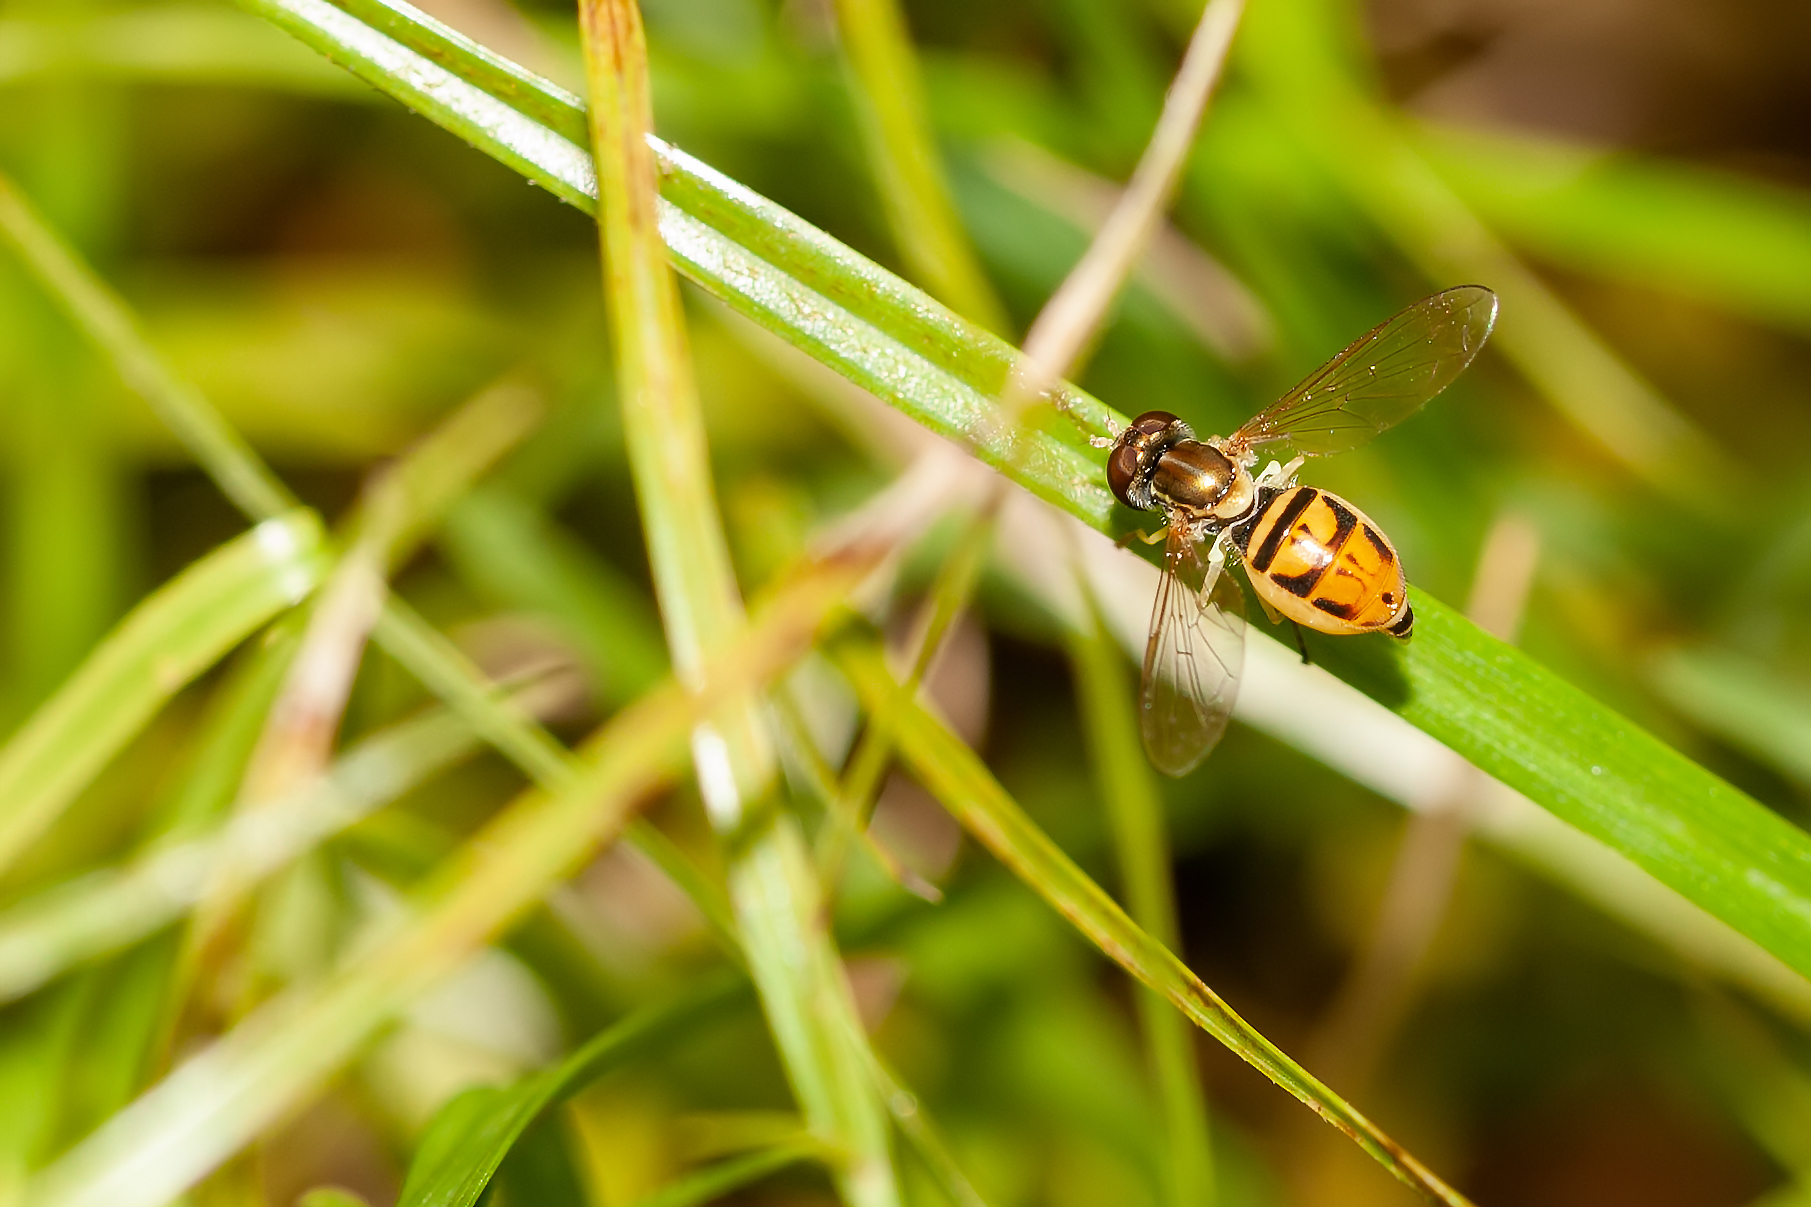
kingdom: Animalia
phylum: Arthropoda
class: Insecta
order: Diptera
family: Syrphidae
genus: Toxomerus
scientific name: Toxomerus marginatus
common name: Syrphid fly
